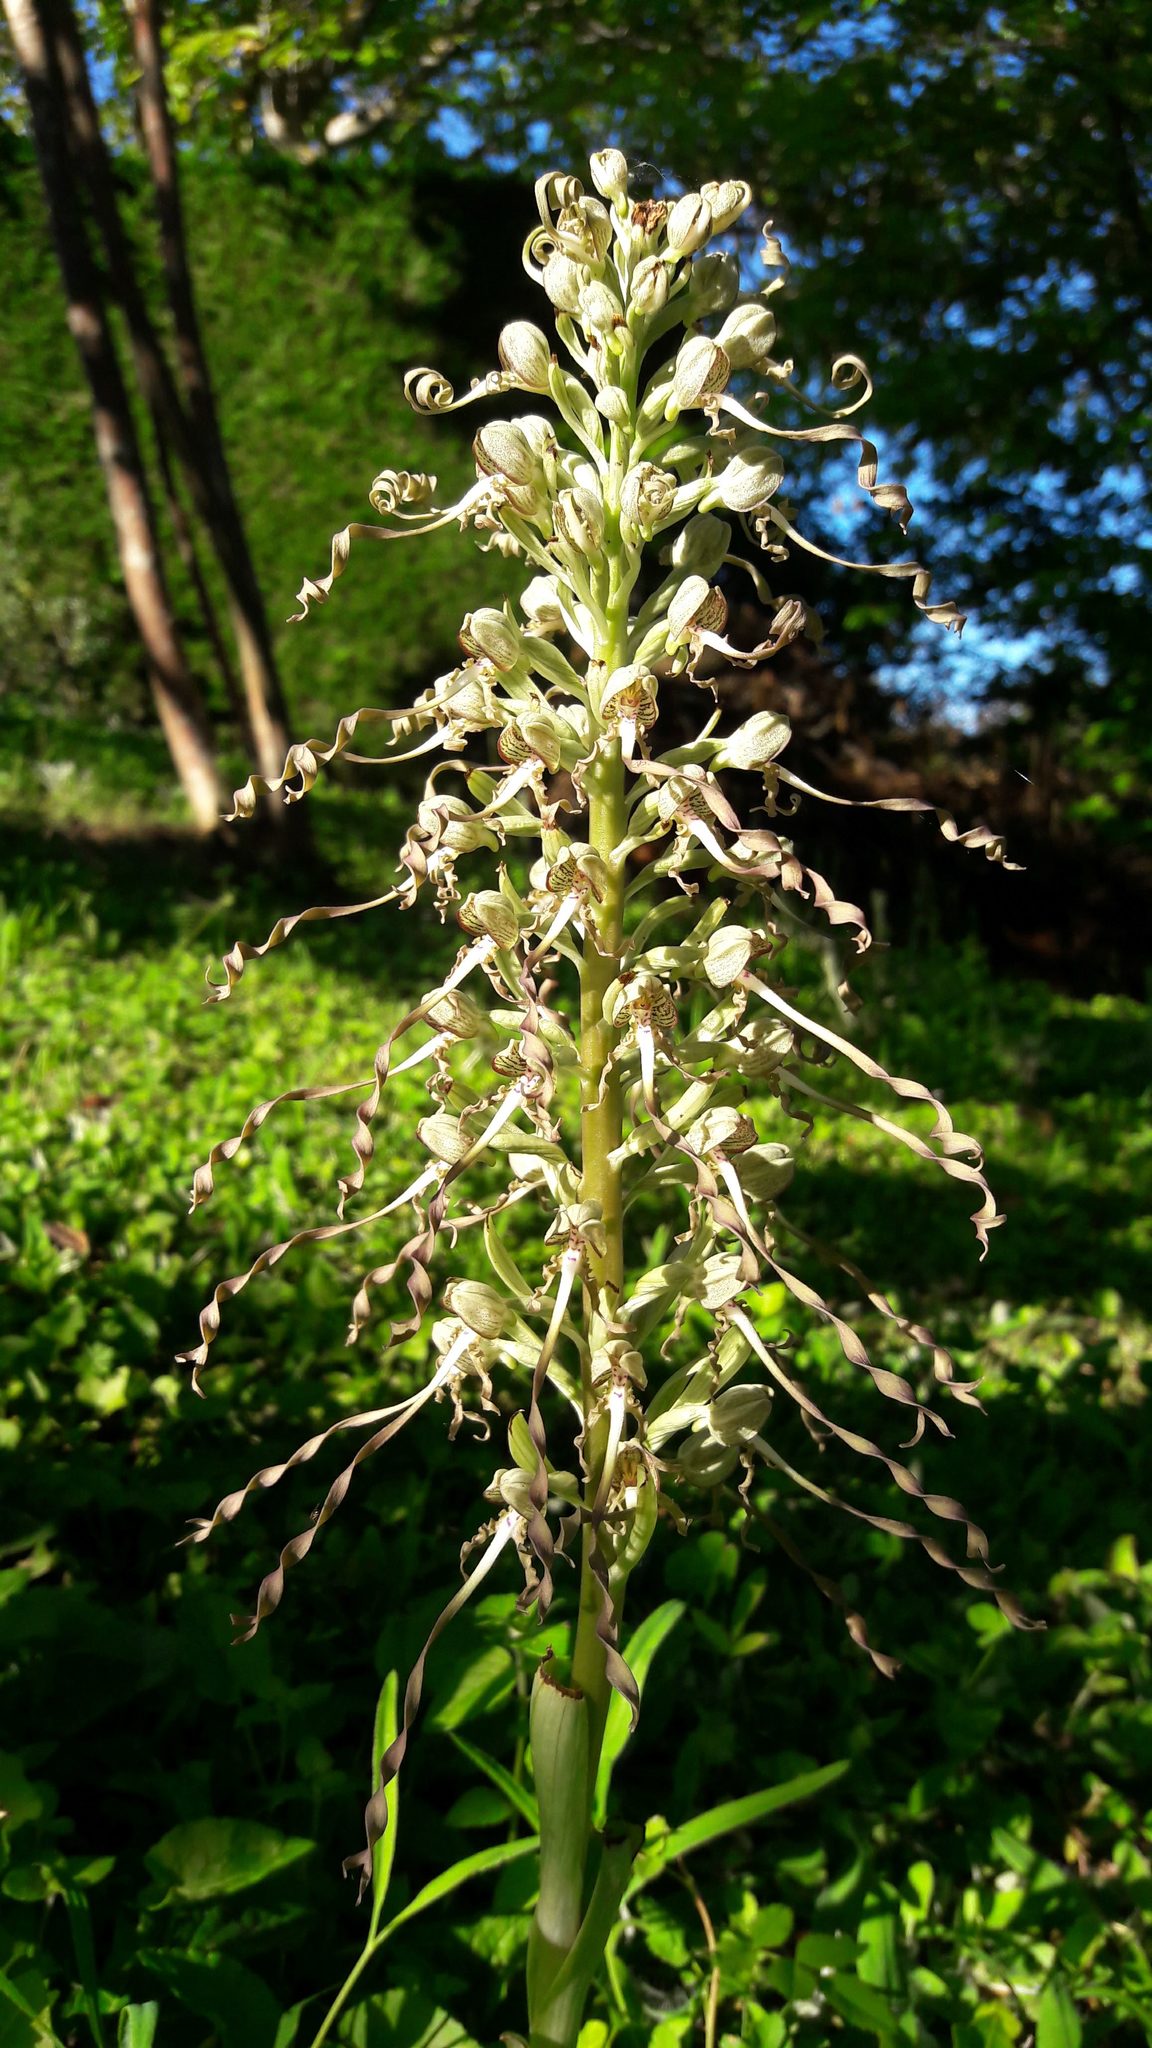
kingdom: Plantae
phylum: Tracheophyta
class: Liliopsida
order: Asparagales
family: Orchidaceae
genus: Himantoglossum
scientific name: Himantoglossum hircinum
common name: Lizard orchid
